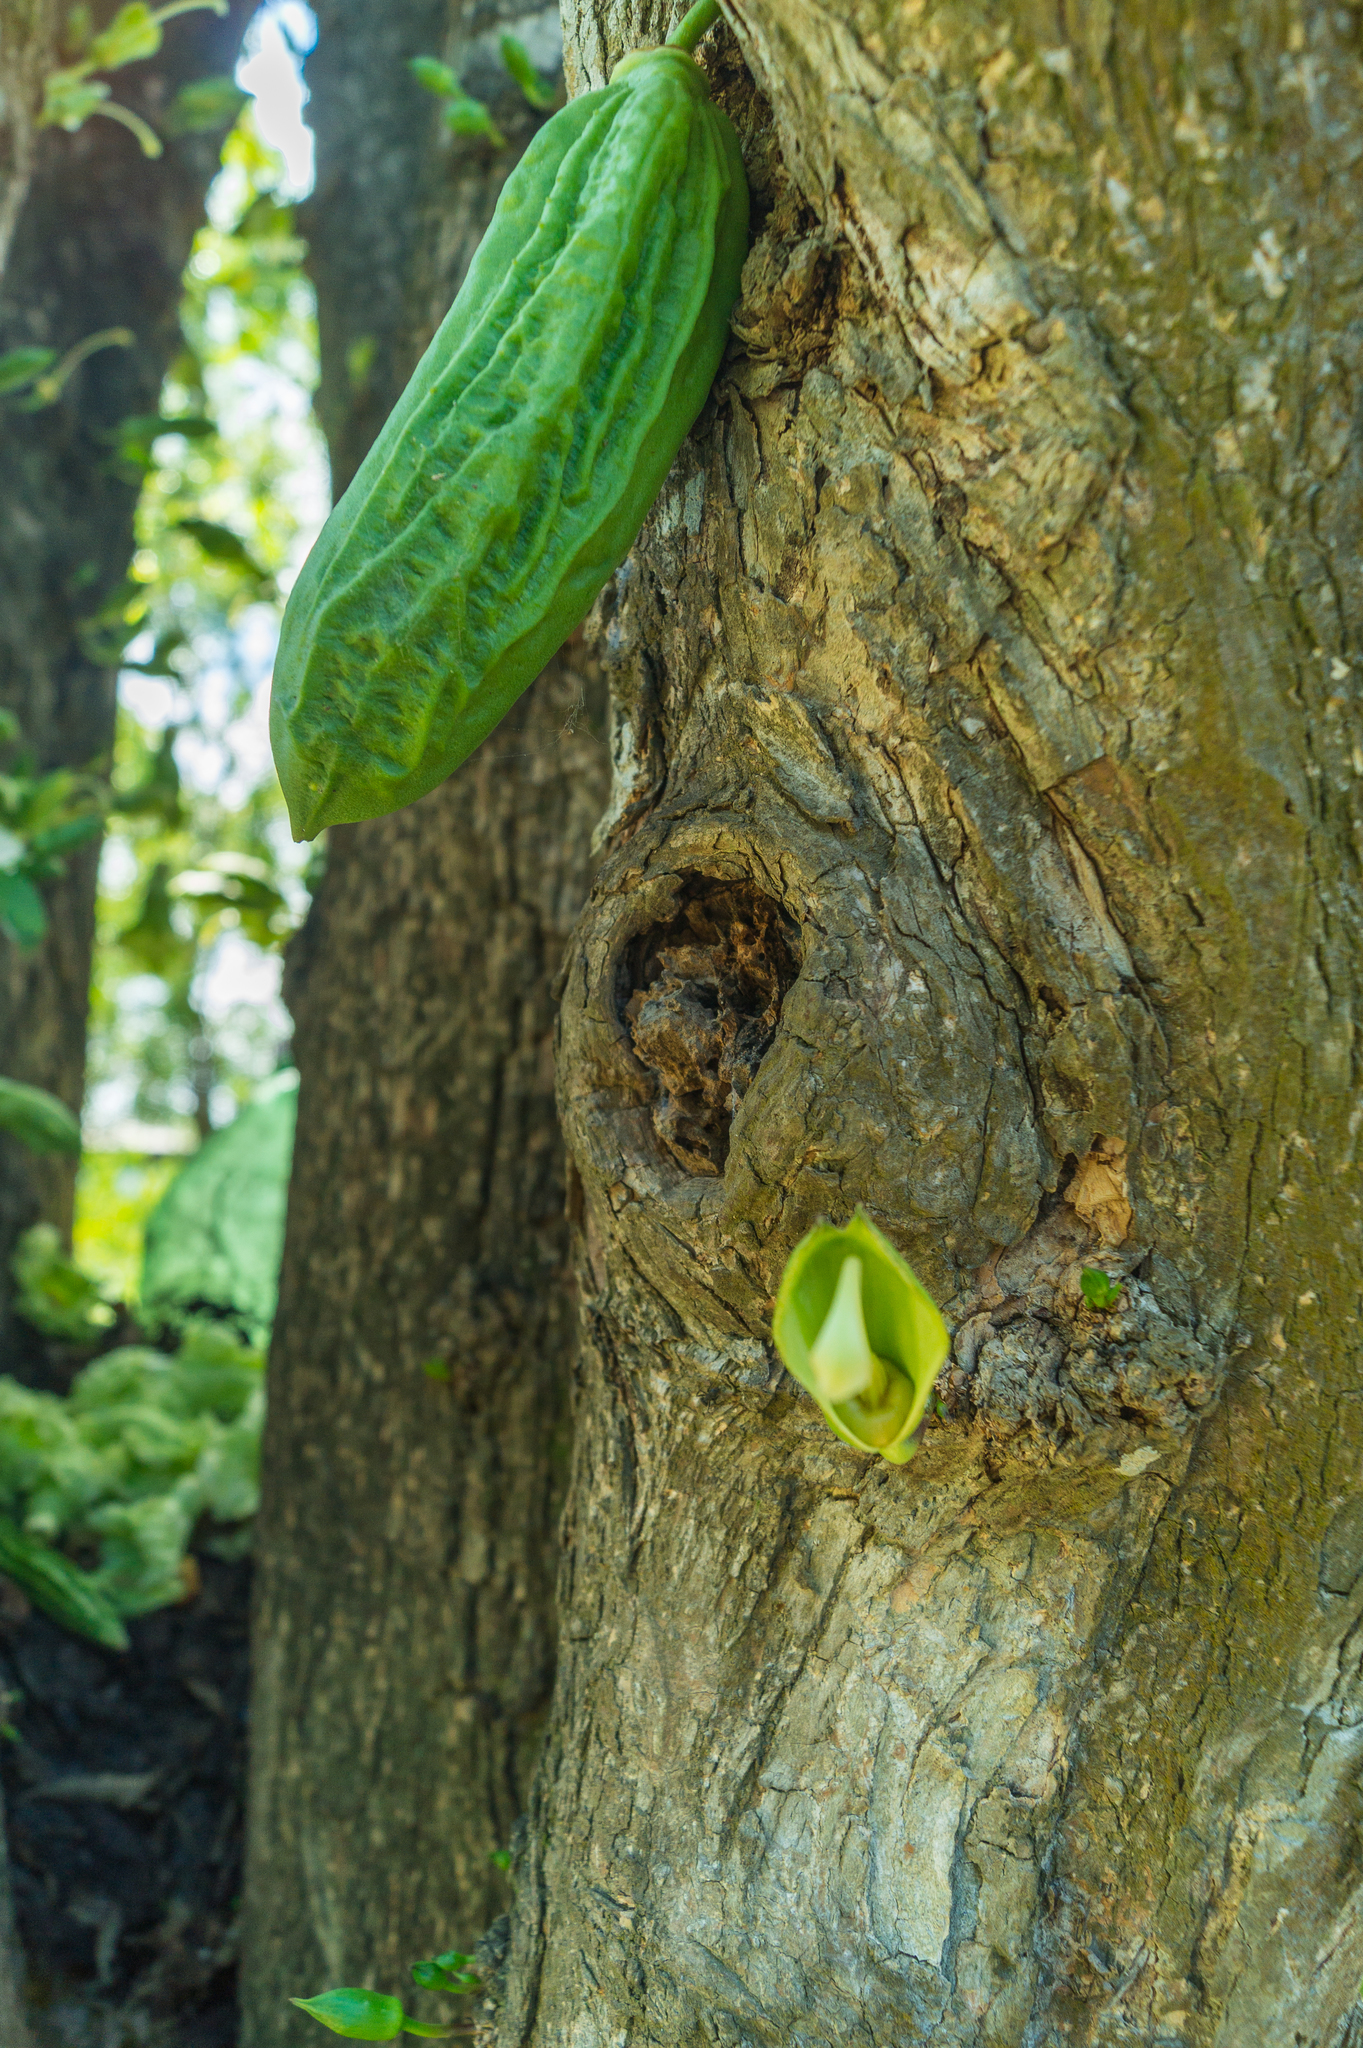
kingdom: Plantae
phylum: Tracheophyta
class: Magnoliopsida
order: Lamiales
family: Bignoniaceae
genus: Parmentiera
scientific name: Parmentiera aculeata
